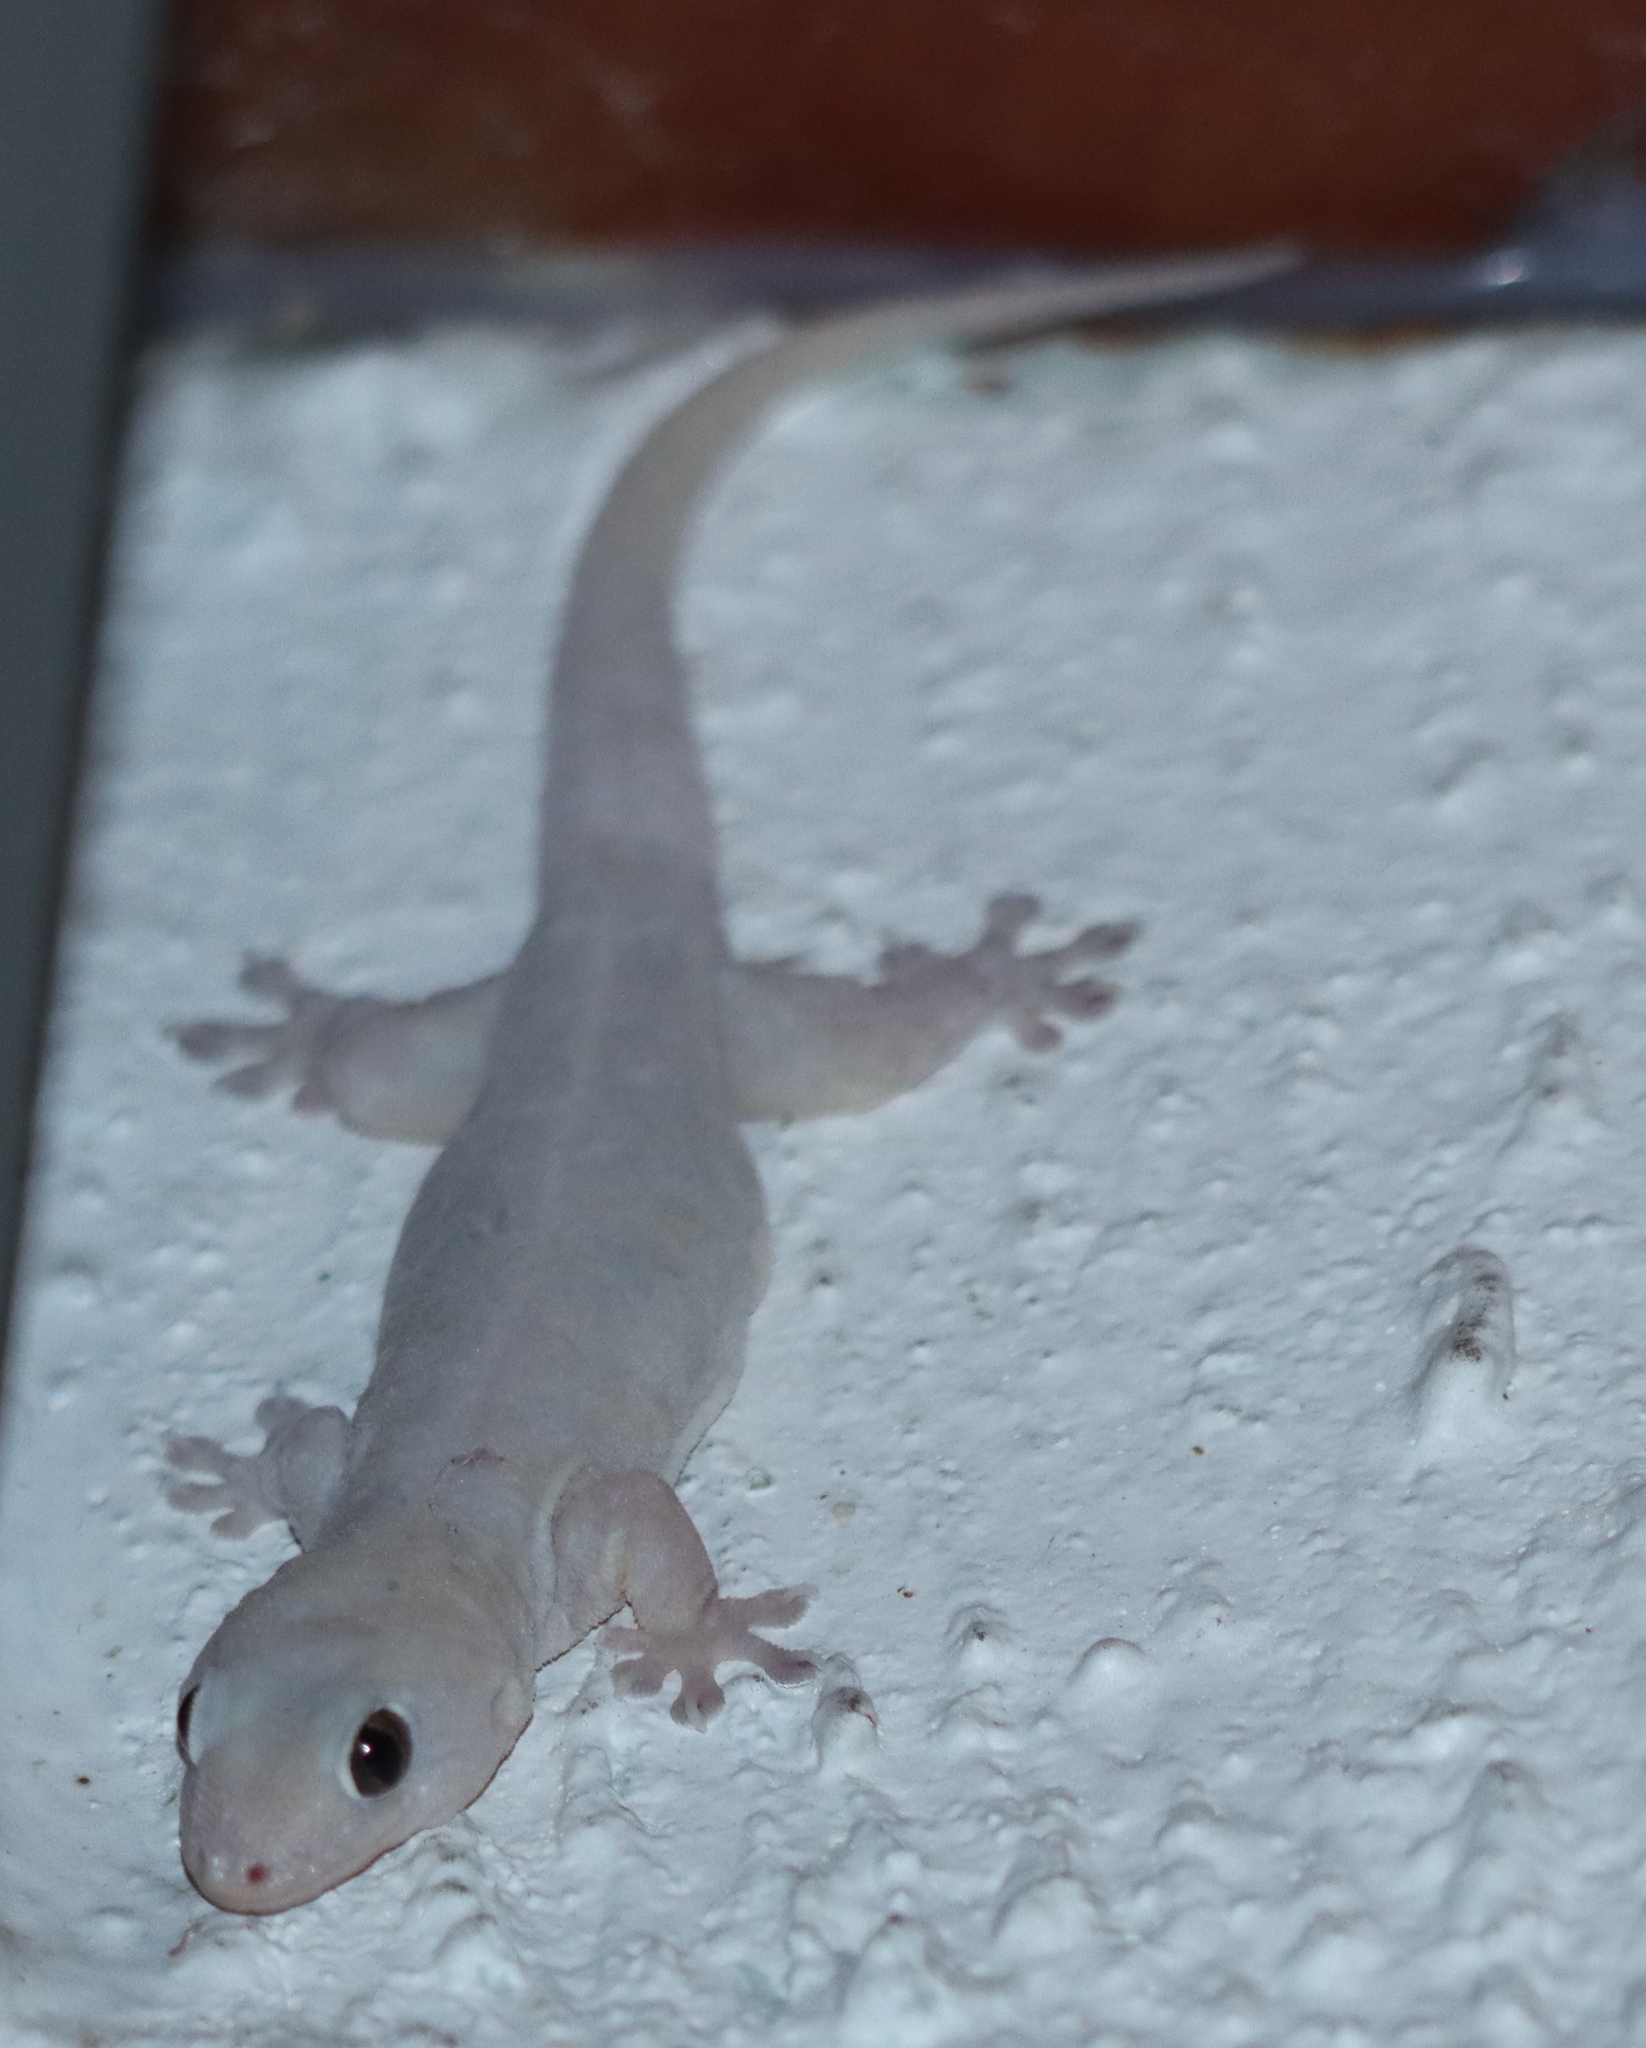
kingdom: Animalia
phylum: Chordata
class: Squamata
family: Gekkonidae
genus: Gehyra
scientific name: Gehyra dubia
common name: Dubious dtella
